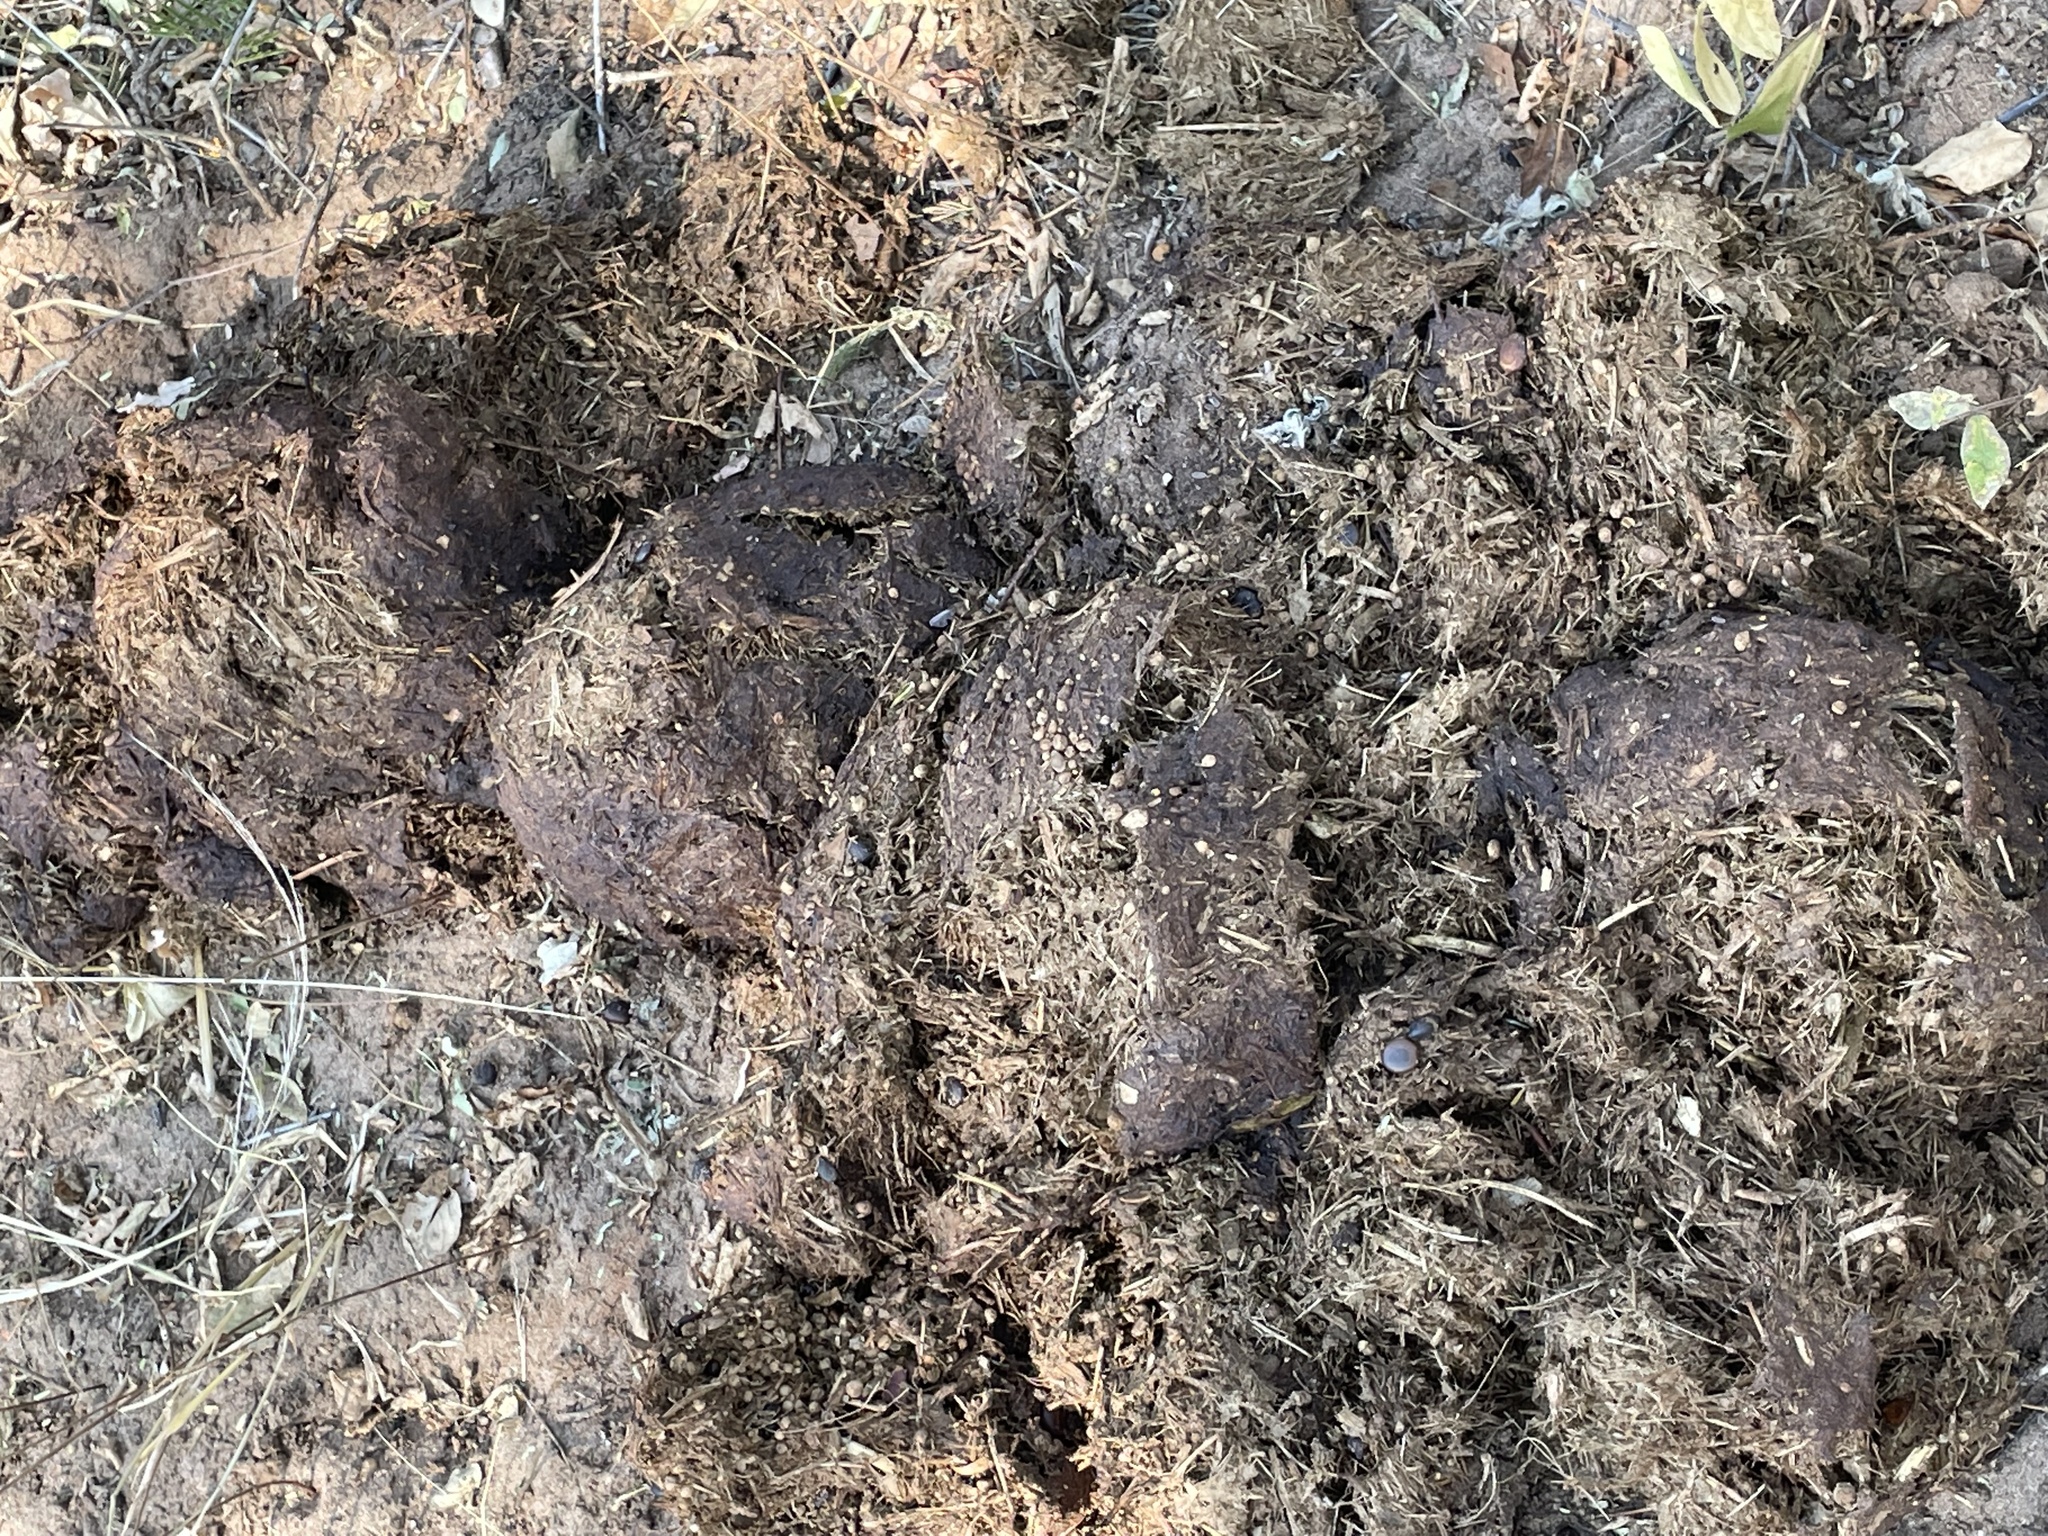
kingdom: Animalia
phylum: Chordata
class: Mammalia
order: Proboscidea
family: Elephantidae
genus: Loxodonta
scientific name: Loxodonta africana
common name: African elephant
